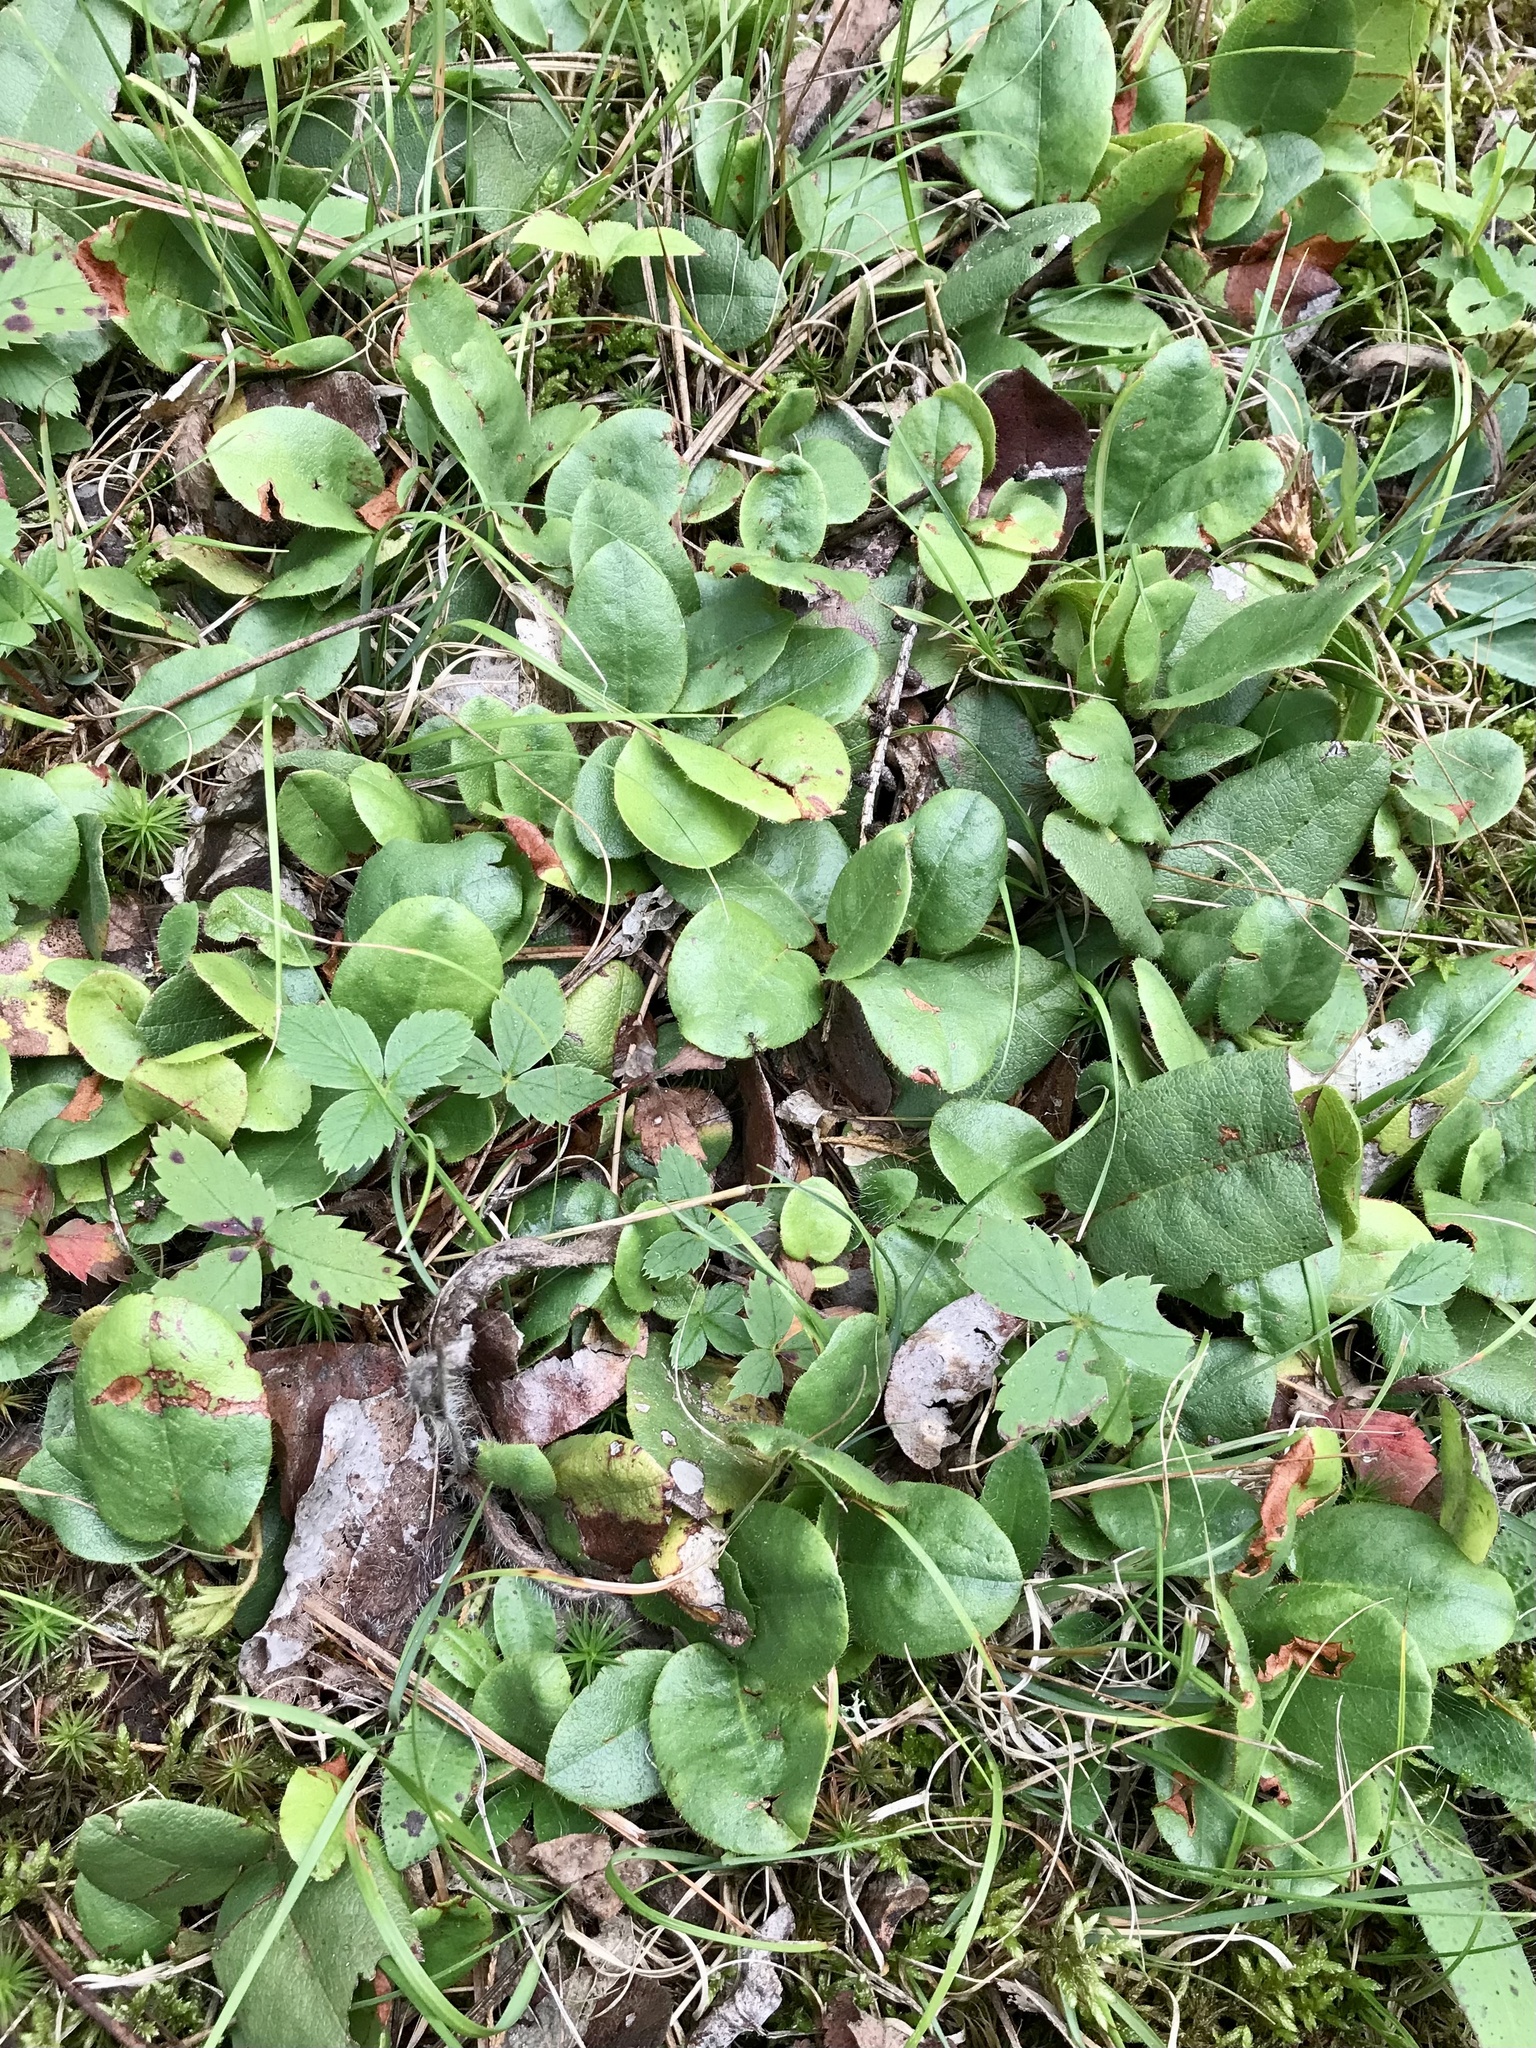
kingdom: Plantae
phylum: Tracheophyta
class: Magnoliopsida
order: Ericales
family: Ericaceae
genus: Epigaea
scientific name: Epigaea repens
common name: Gravelroot
